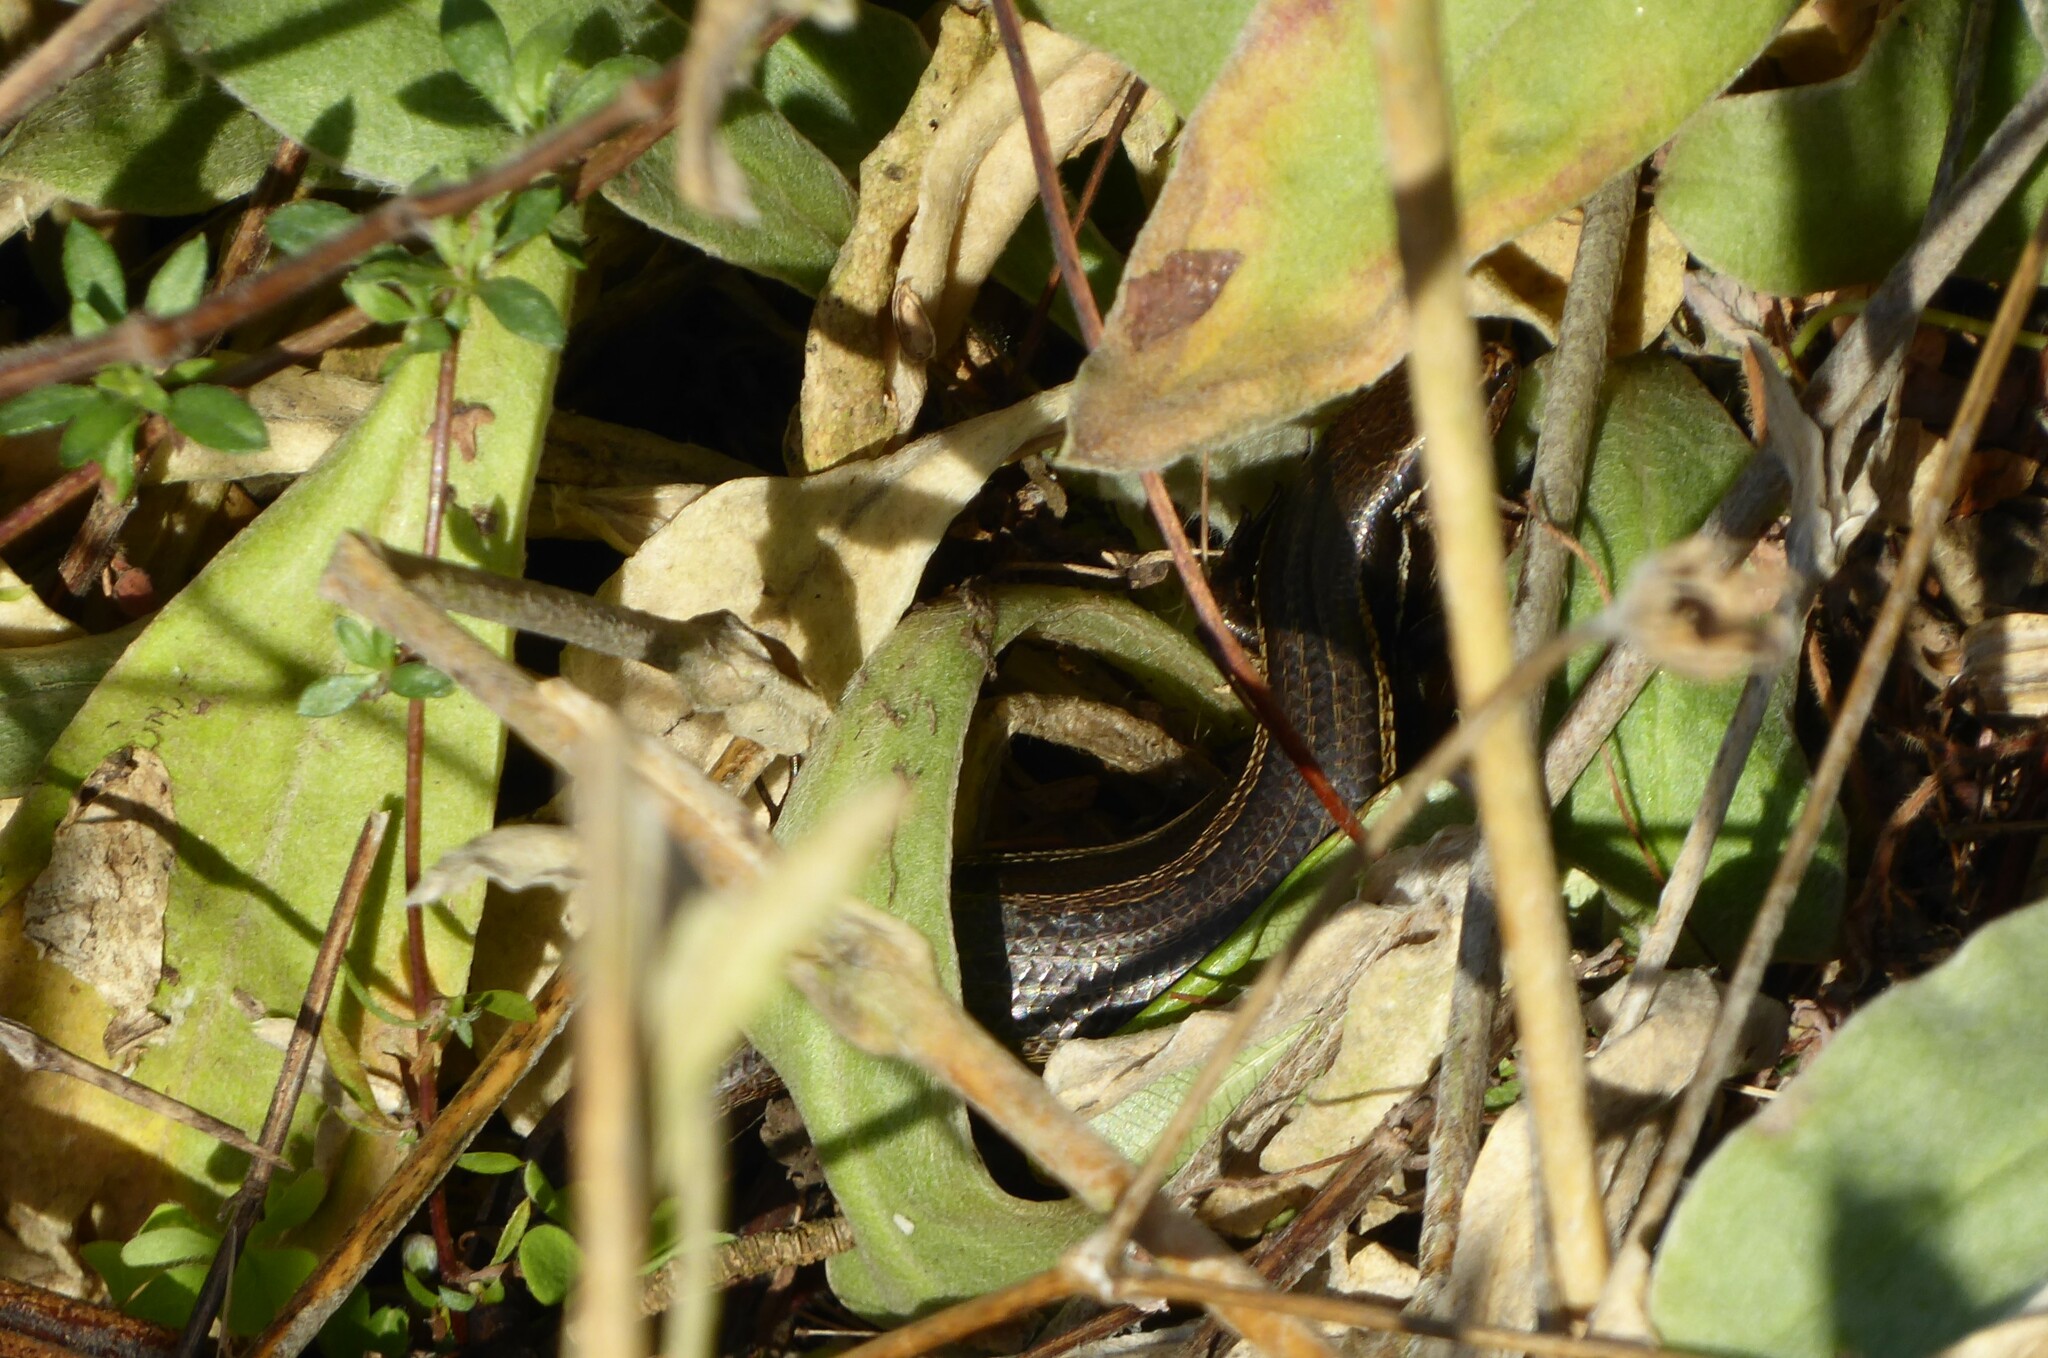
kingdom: Animalia
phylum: Chordata
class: Squamata
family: Scincidae
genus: Oligosoma
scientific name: Oligosoma polychroma
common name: Common new zealand skink
